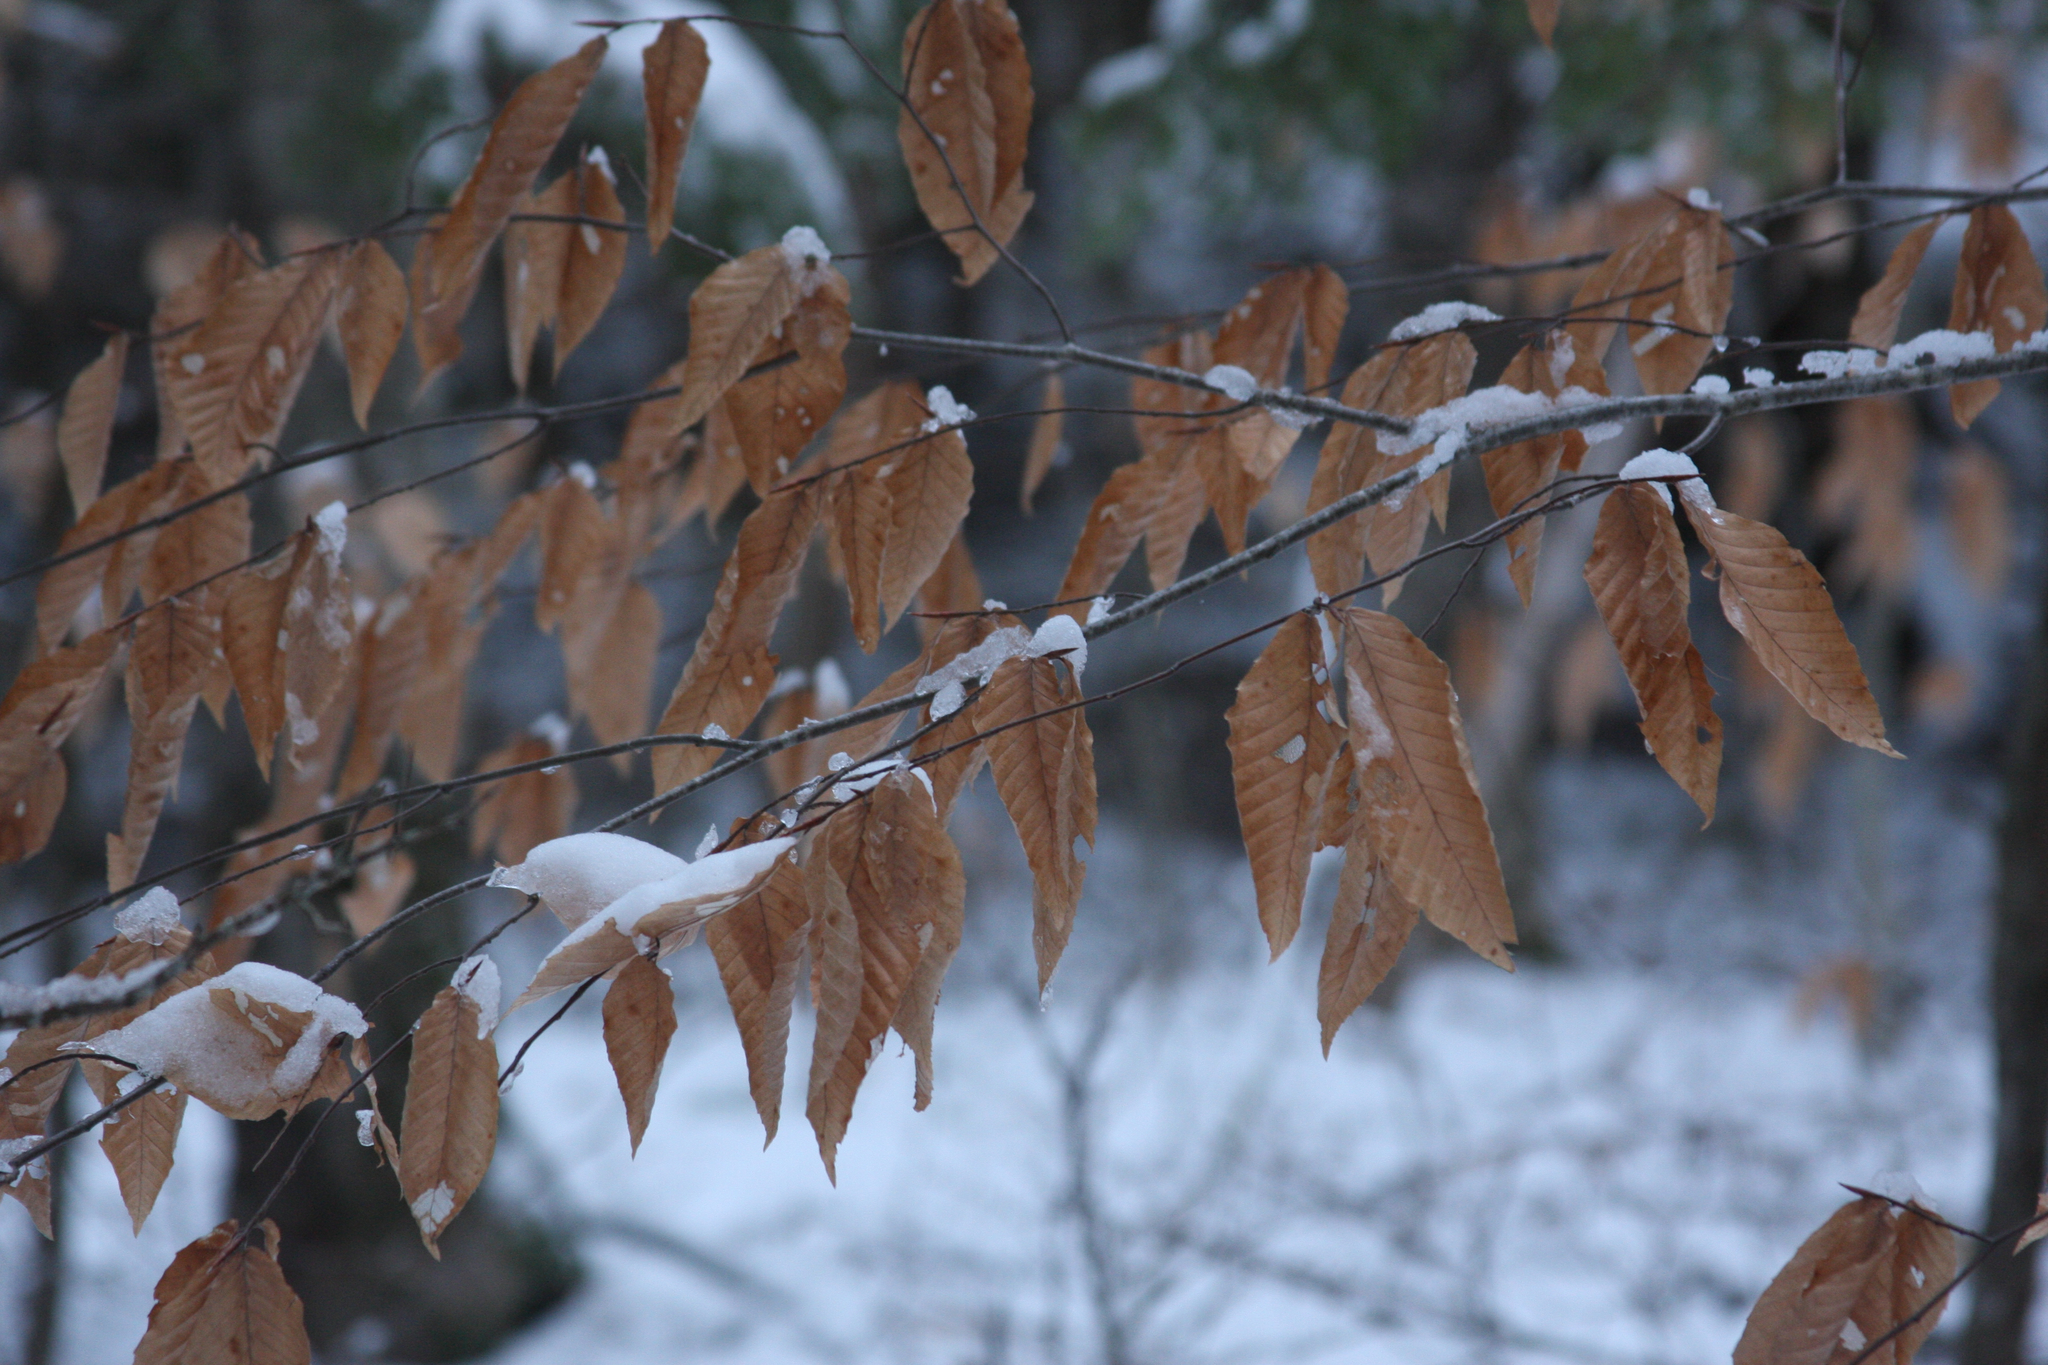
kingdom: Plantae
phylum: Tracheophyta
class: Magnoliopsida
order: Fagales
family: Fagaceae
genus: Fagus
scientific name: Fagus grandifolia
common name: American beech
